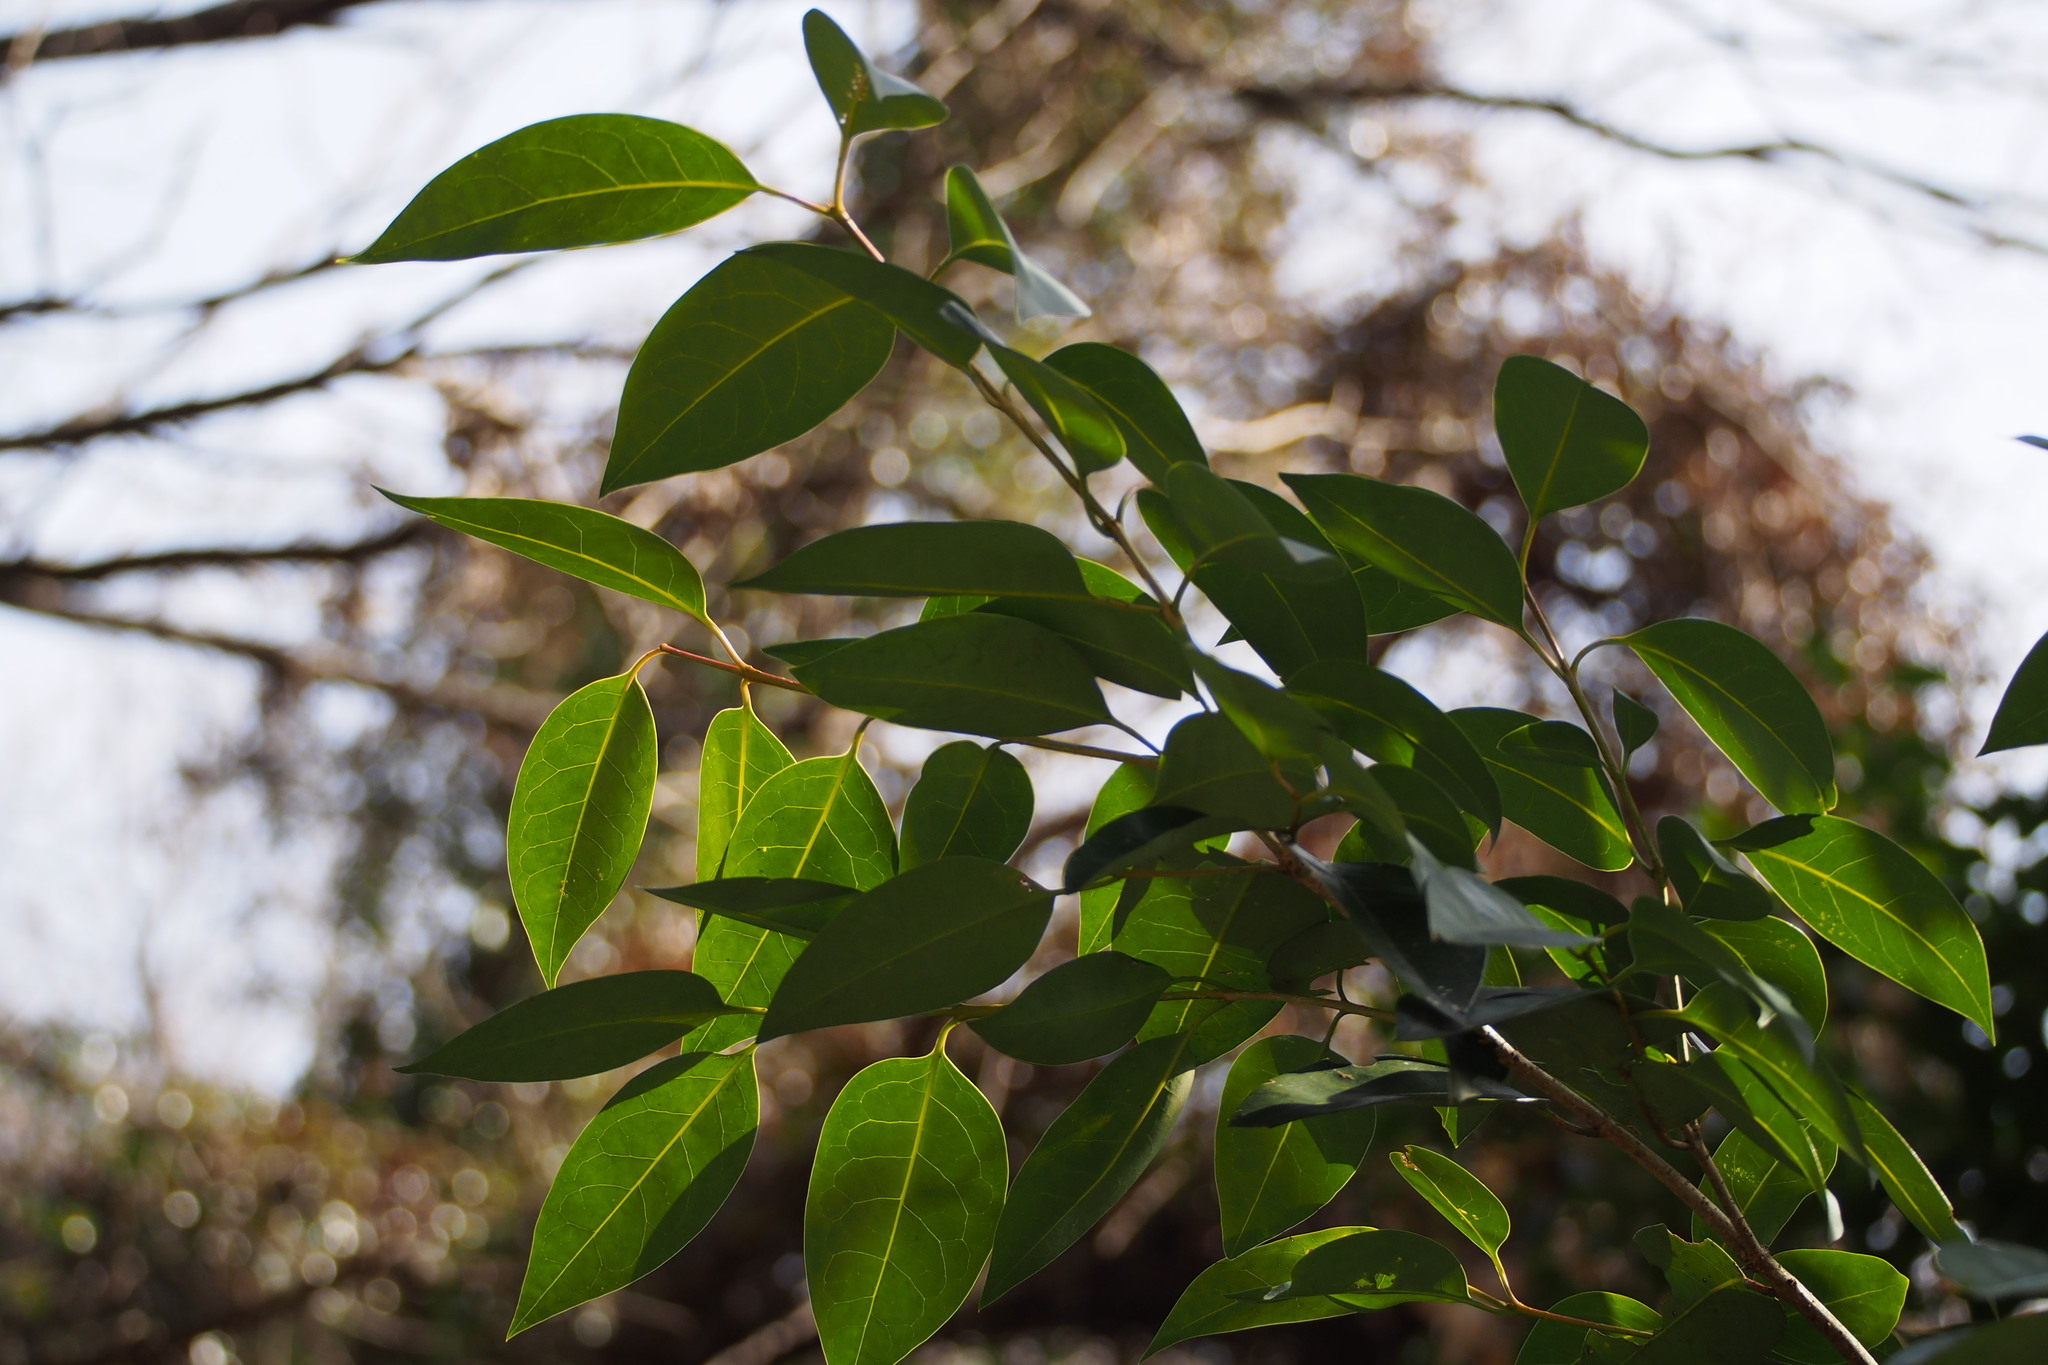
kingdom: Plantae
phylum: Tracheophyta
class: Magnoliopsida
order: Lamiales
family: Oleaceae
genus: Ligustrum
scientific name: Ligustrum lucidum
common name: Glossy privet
